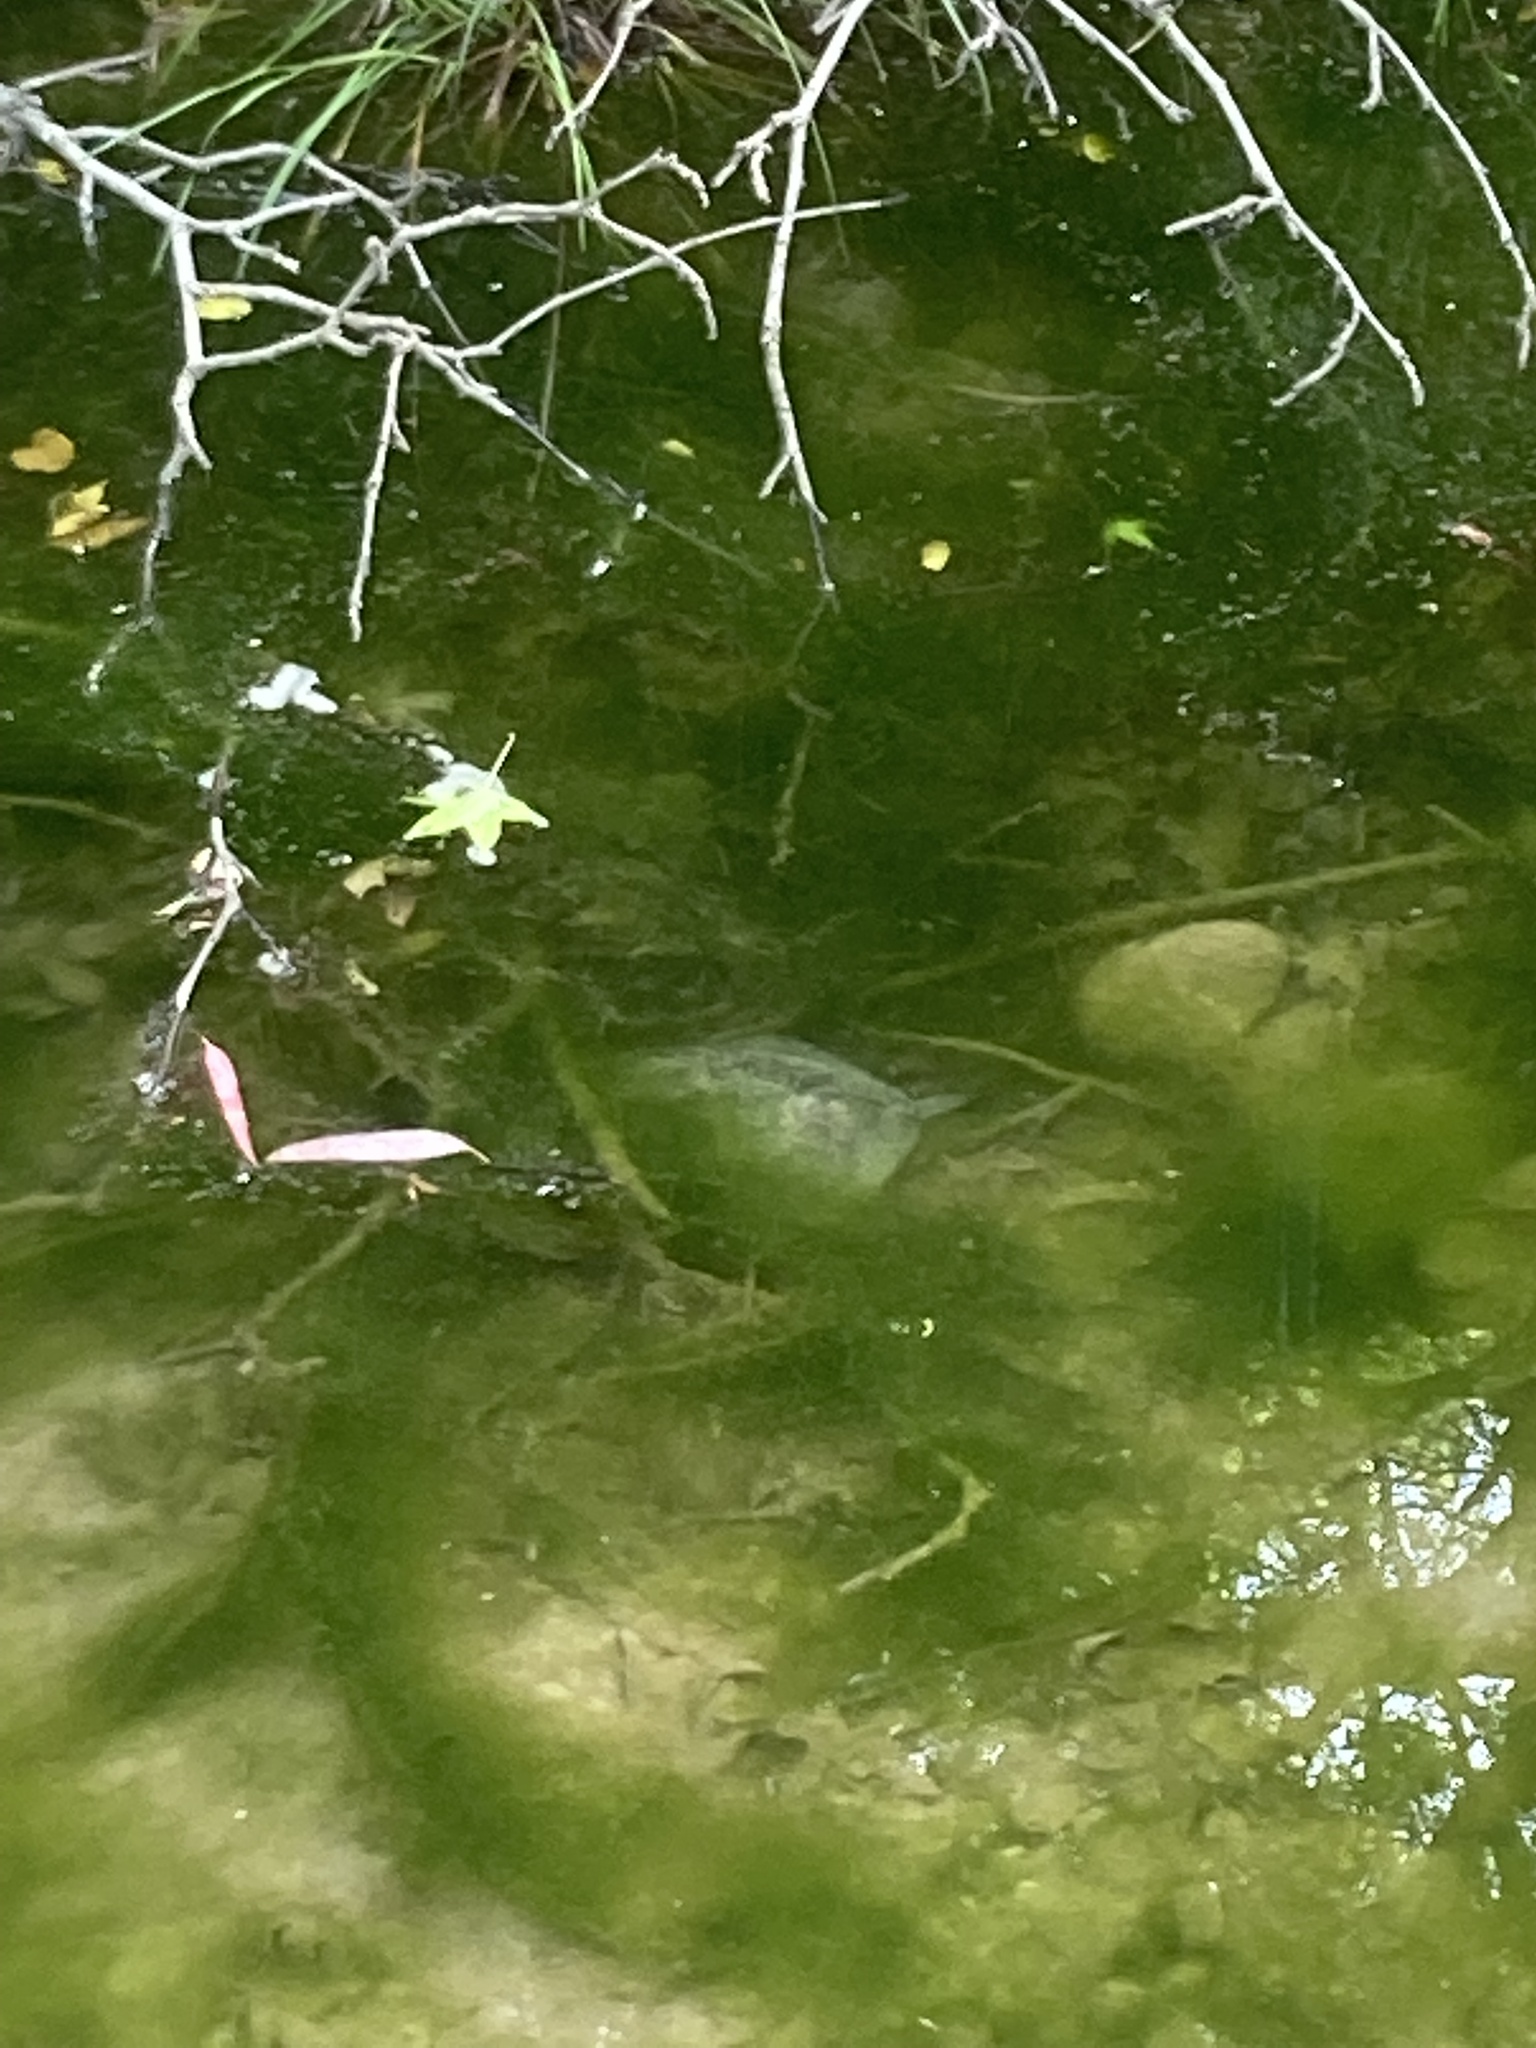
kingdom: Animalia
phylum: Chordata
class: Testudines
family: Geoemydidae
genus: Mauremys
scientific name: Mauremys rivulata
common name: Western caspian turtle
